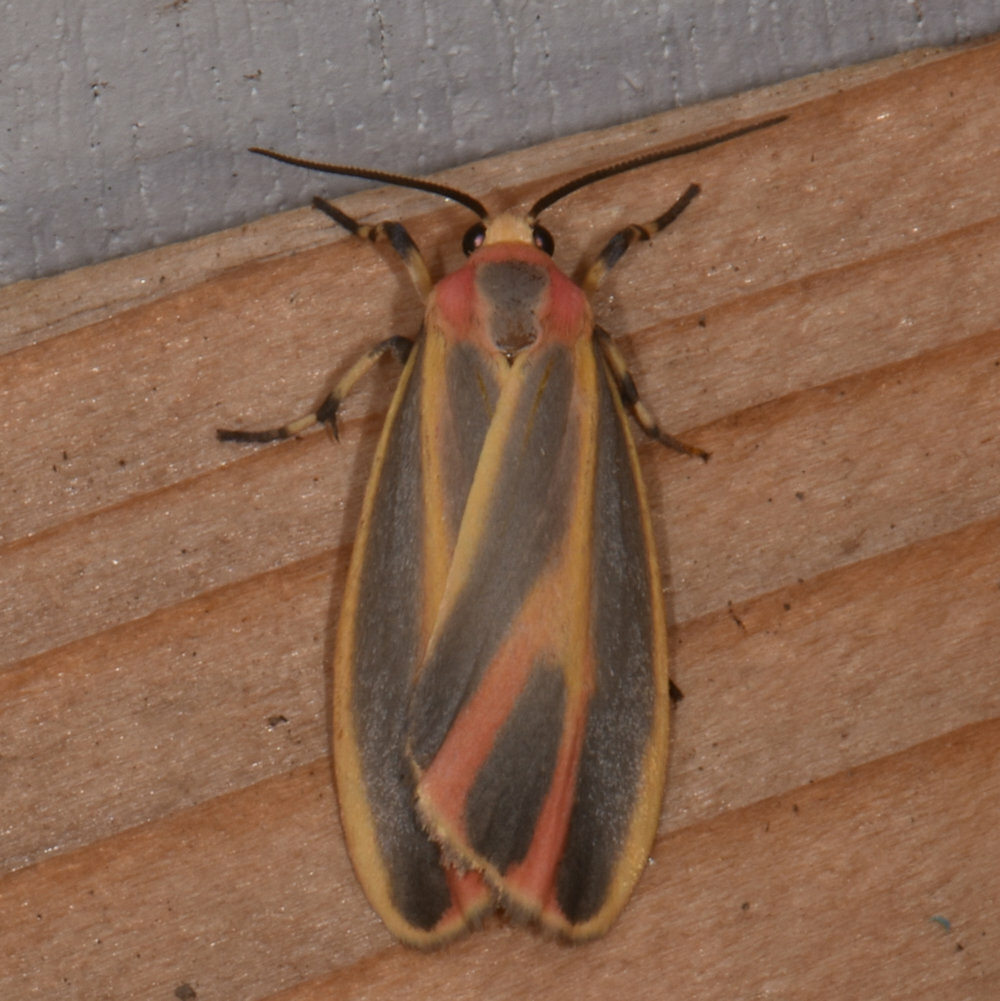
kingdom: Animalia
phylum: Arthropoda
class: Insecta
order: Lepidoptera
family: Erebidae
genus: Hypoprepia
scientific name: Hypoprepia fucosa
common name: Painted lichen moth
